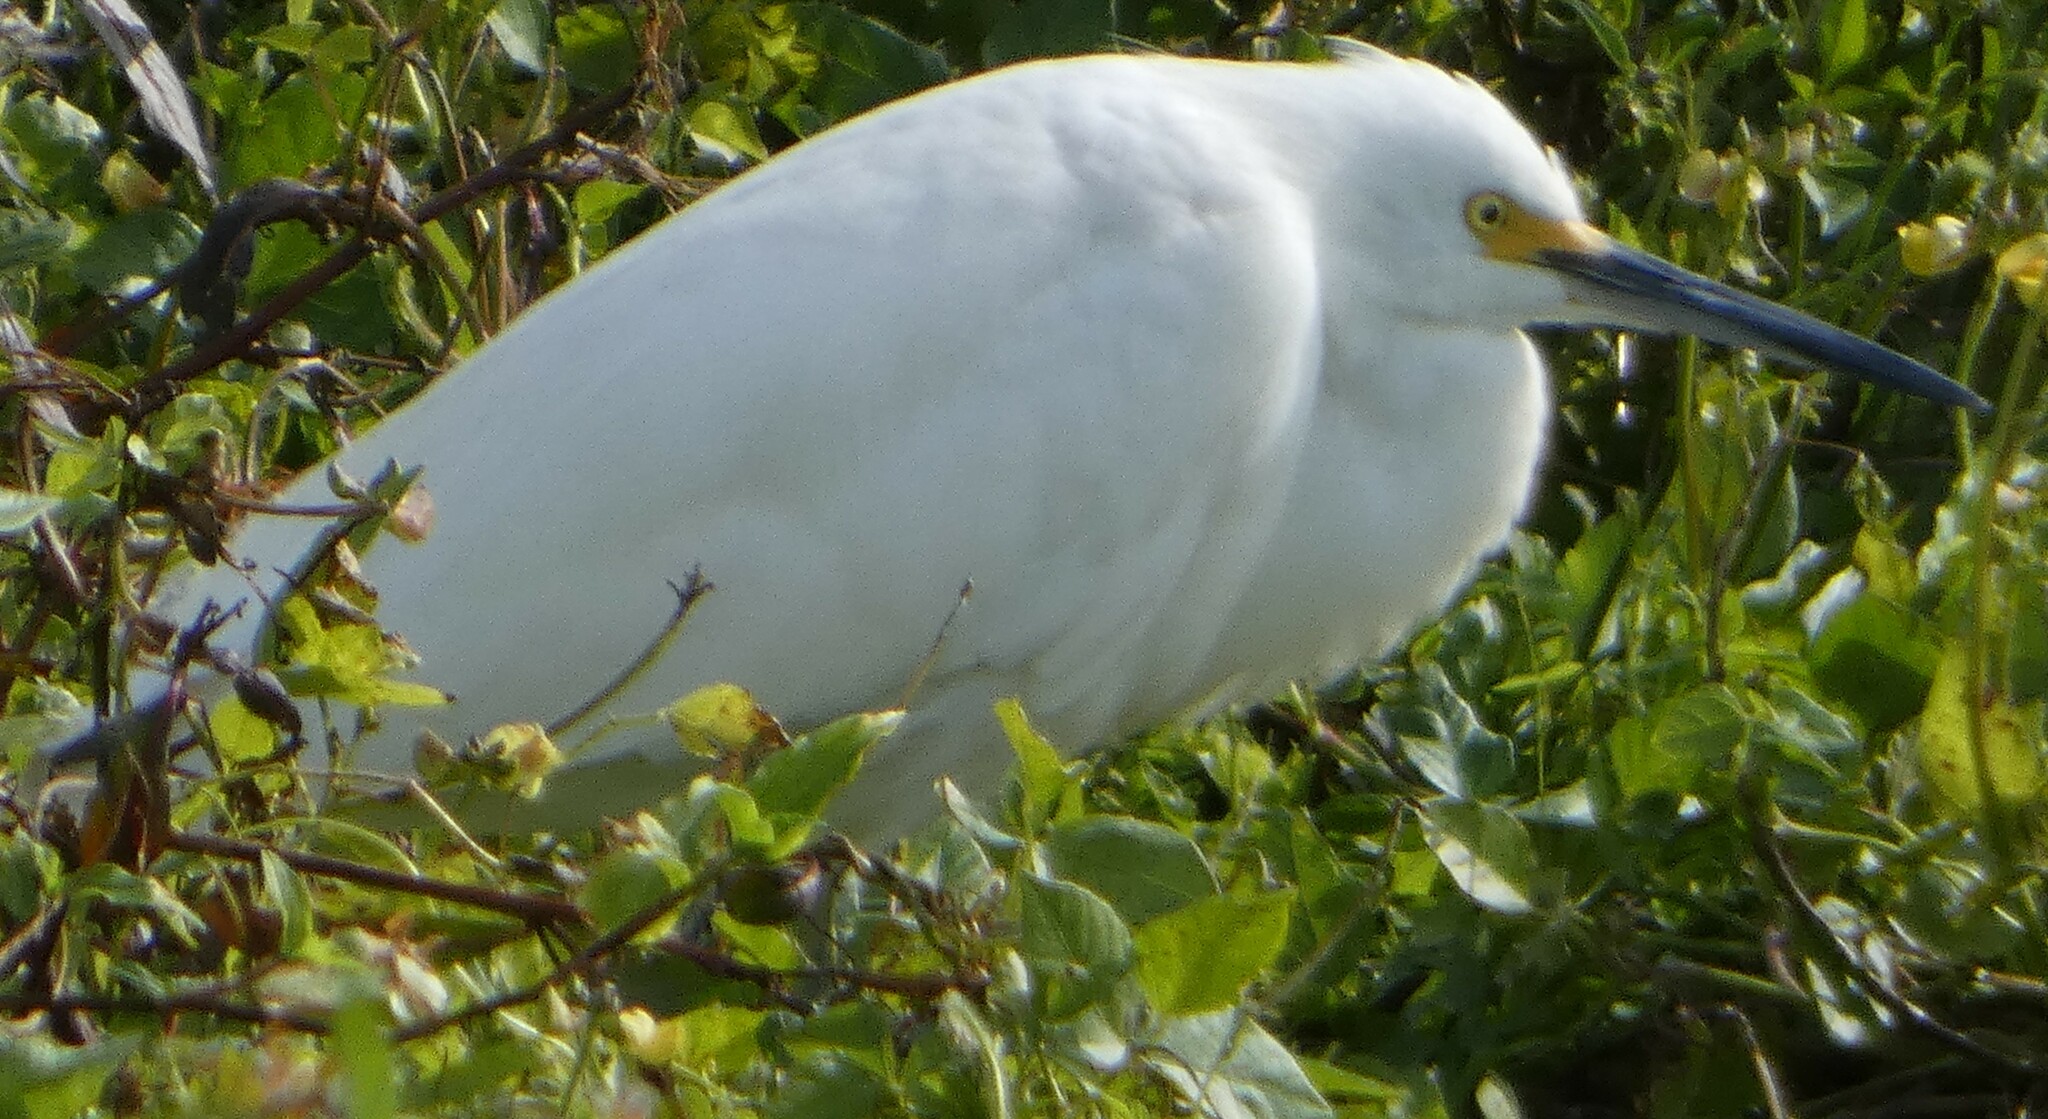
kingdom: Animalia
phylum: Chordata
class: Aves
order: Pelecaniformes
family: Ardeidae
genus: Egretta
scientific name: Egretta thula
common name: Snowy egret
